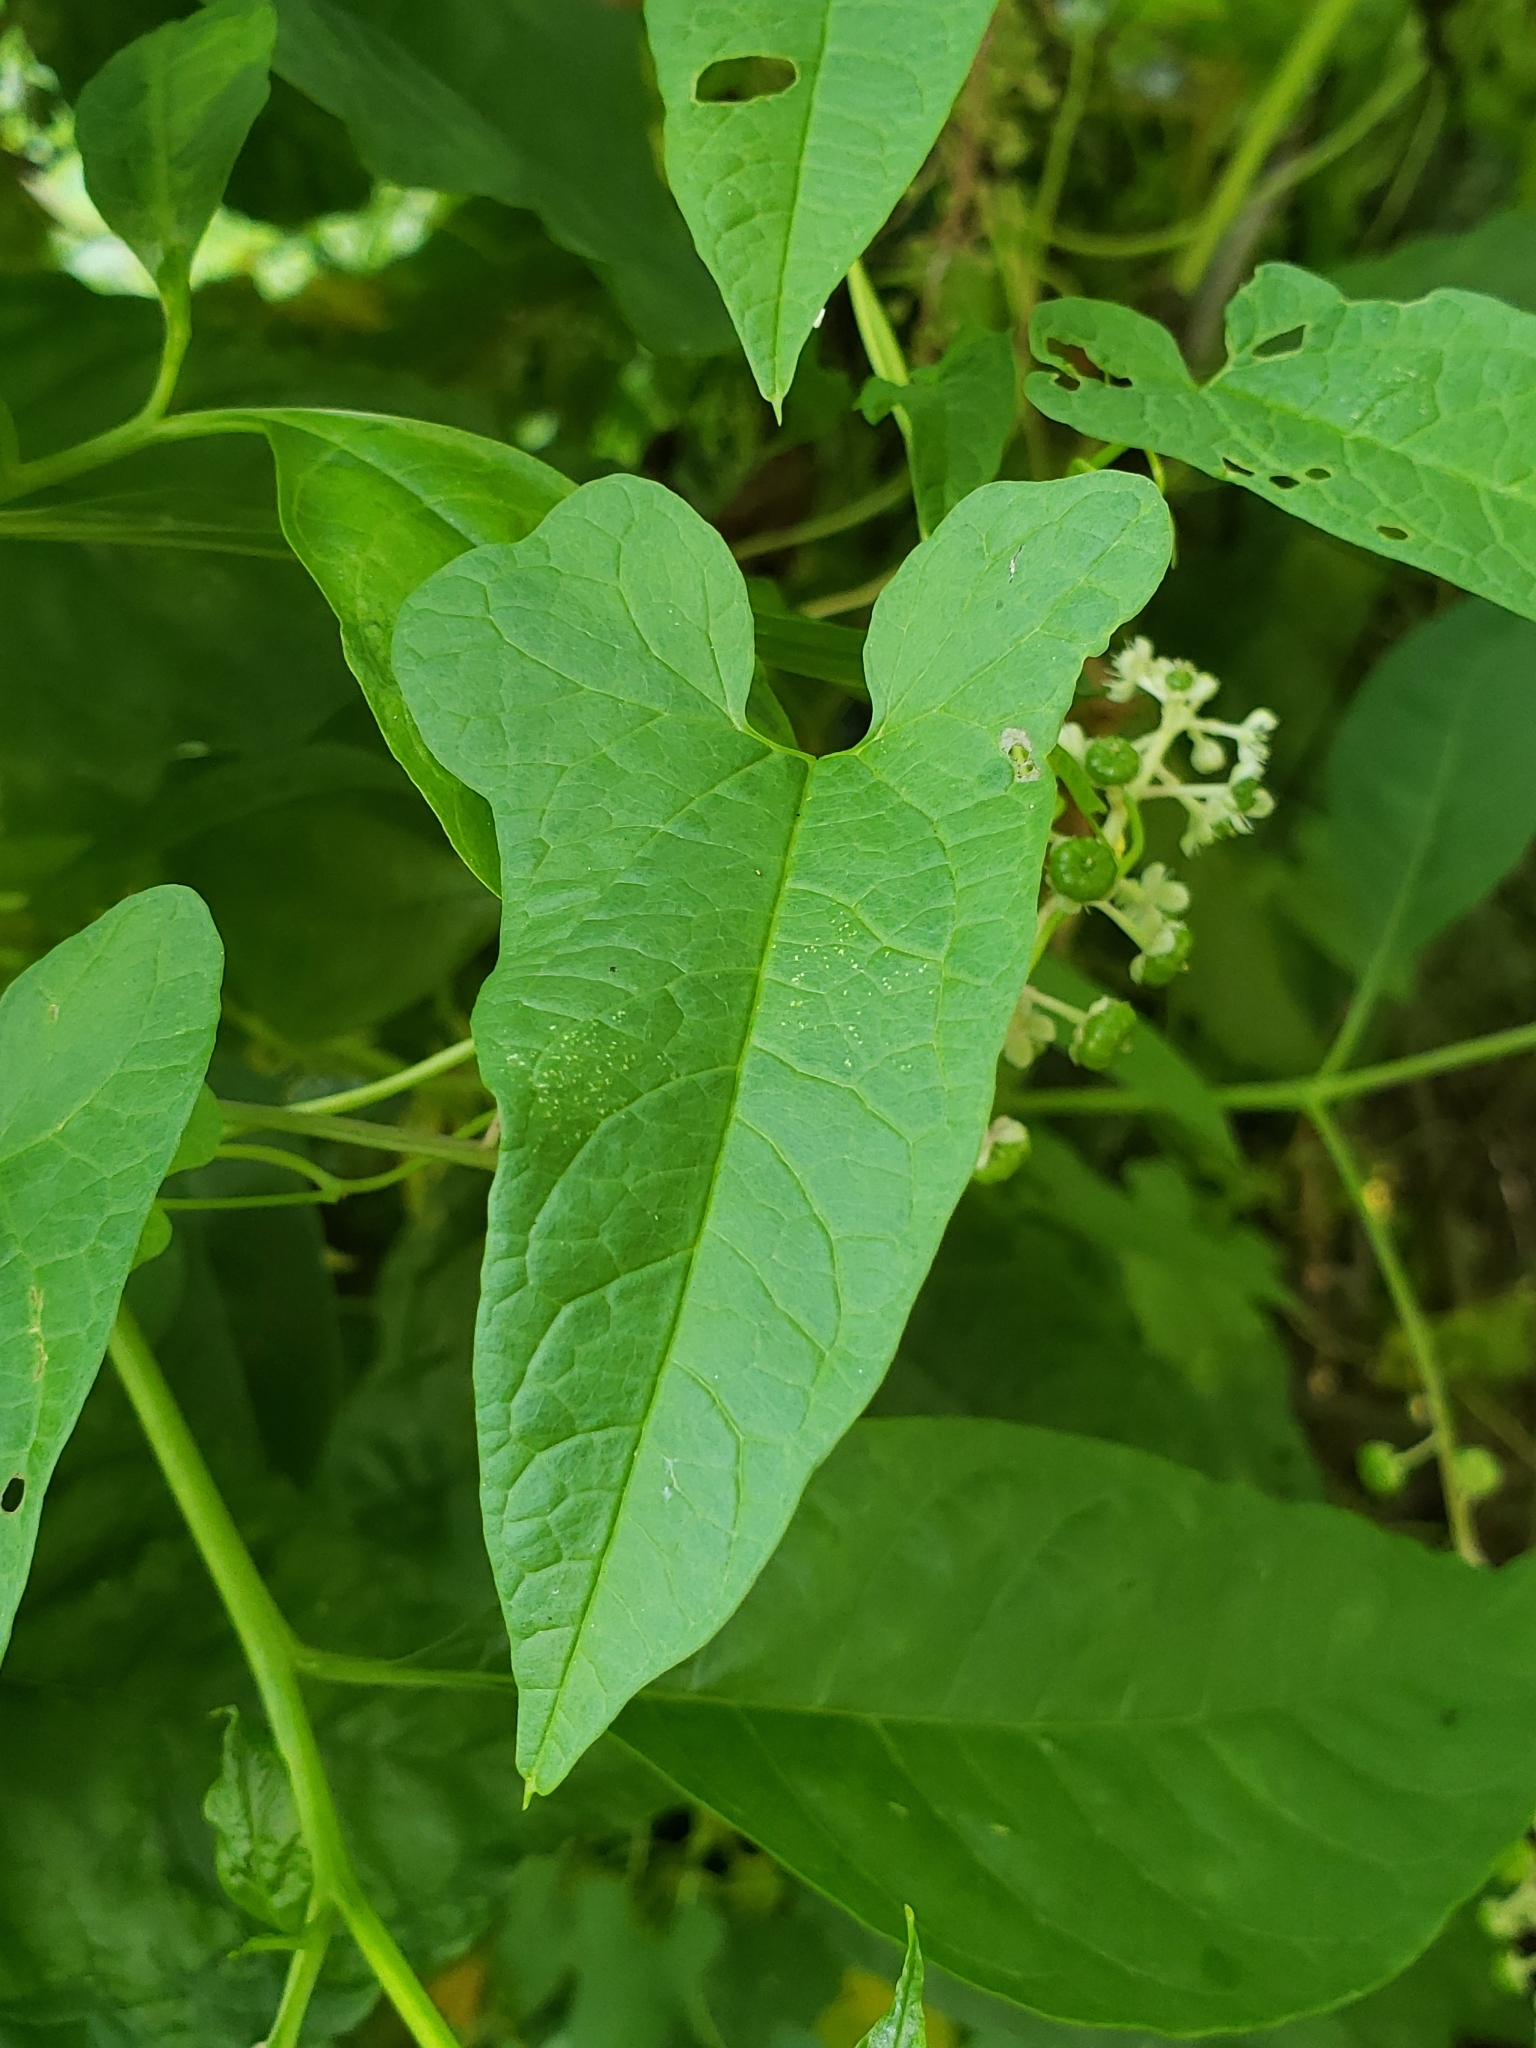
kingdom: Plantae
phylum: Tracheophyta
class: Magnoliopsida
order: Solanales
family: Convolvulaceae
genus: Calystegia
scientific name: Calystegia sepium
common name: Hedge bindweed
